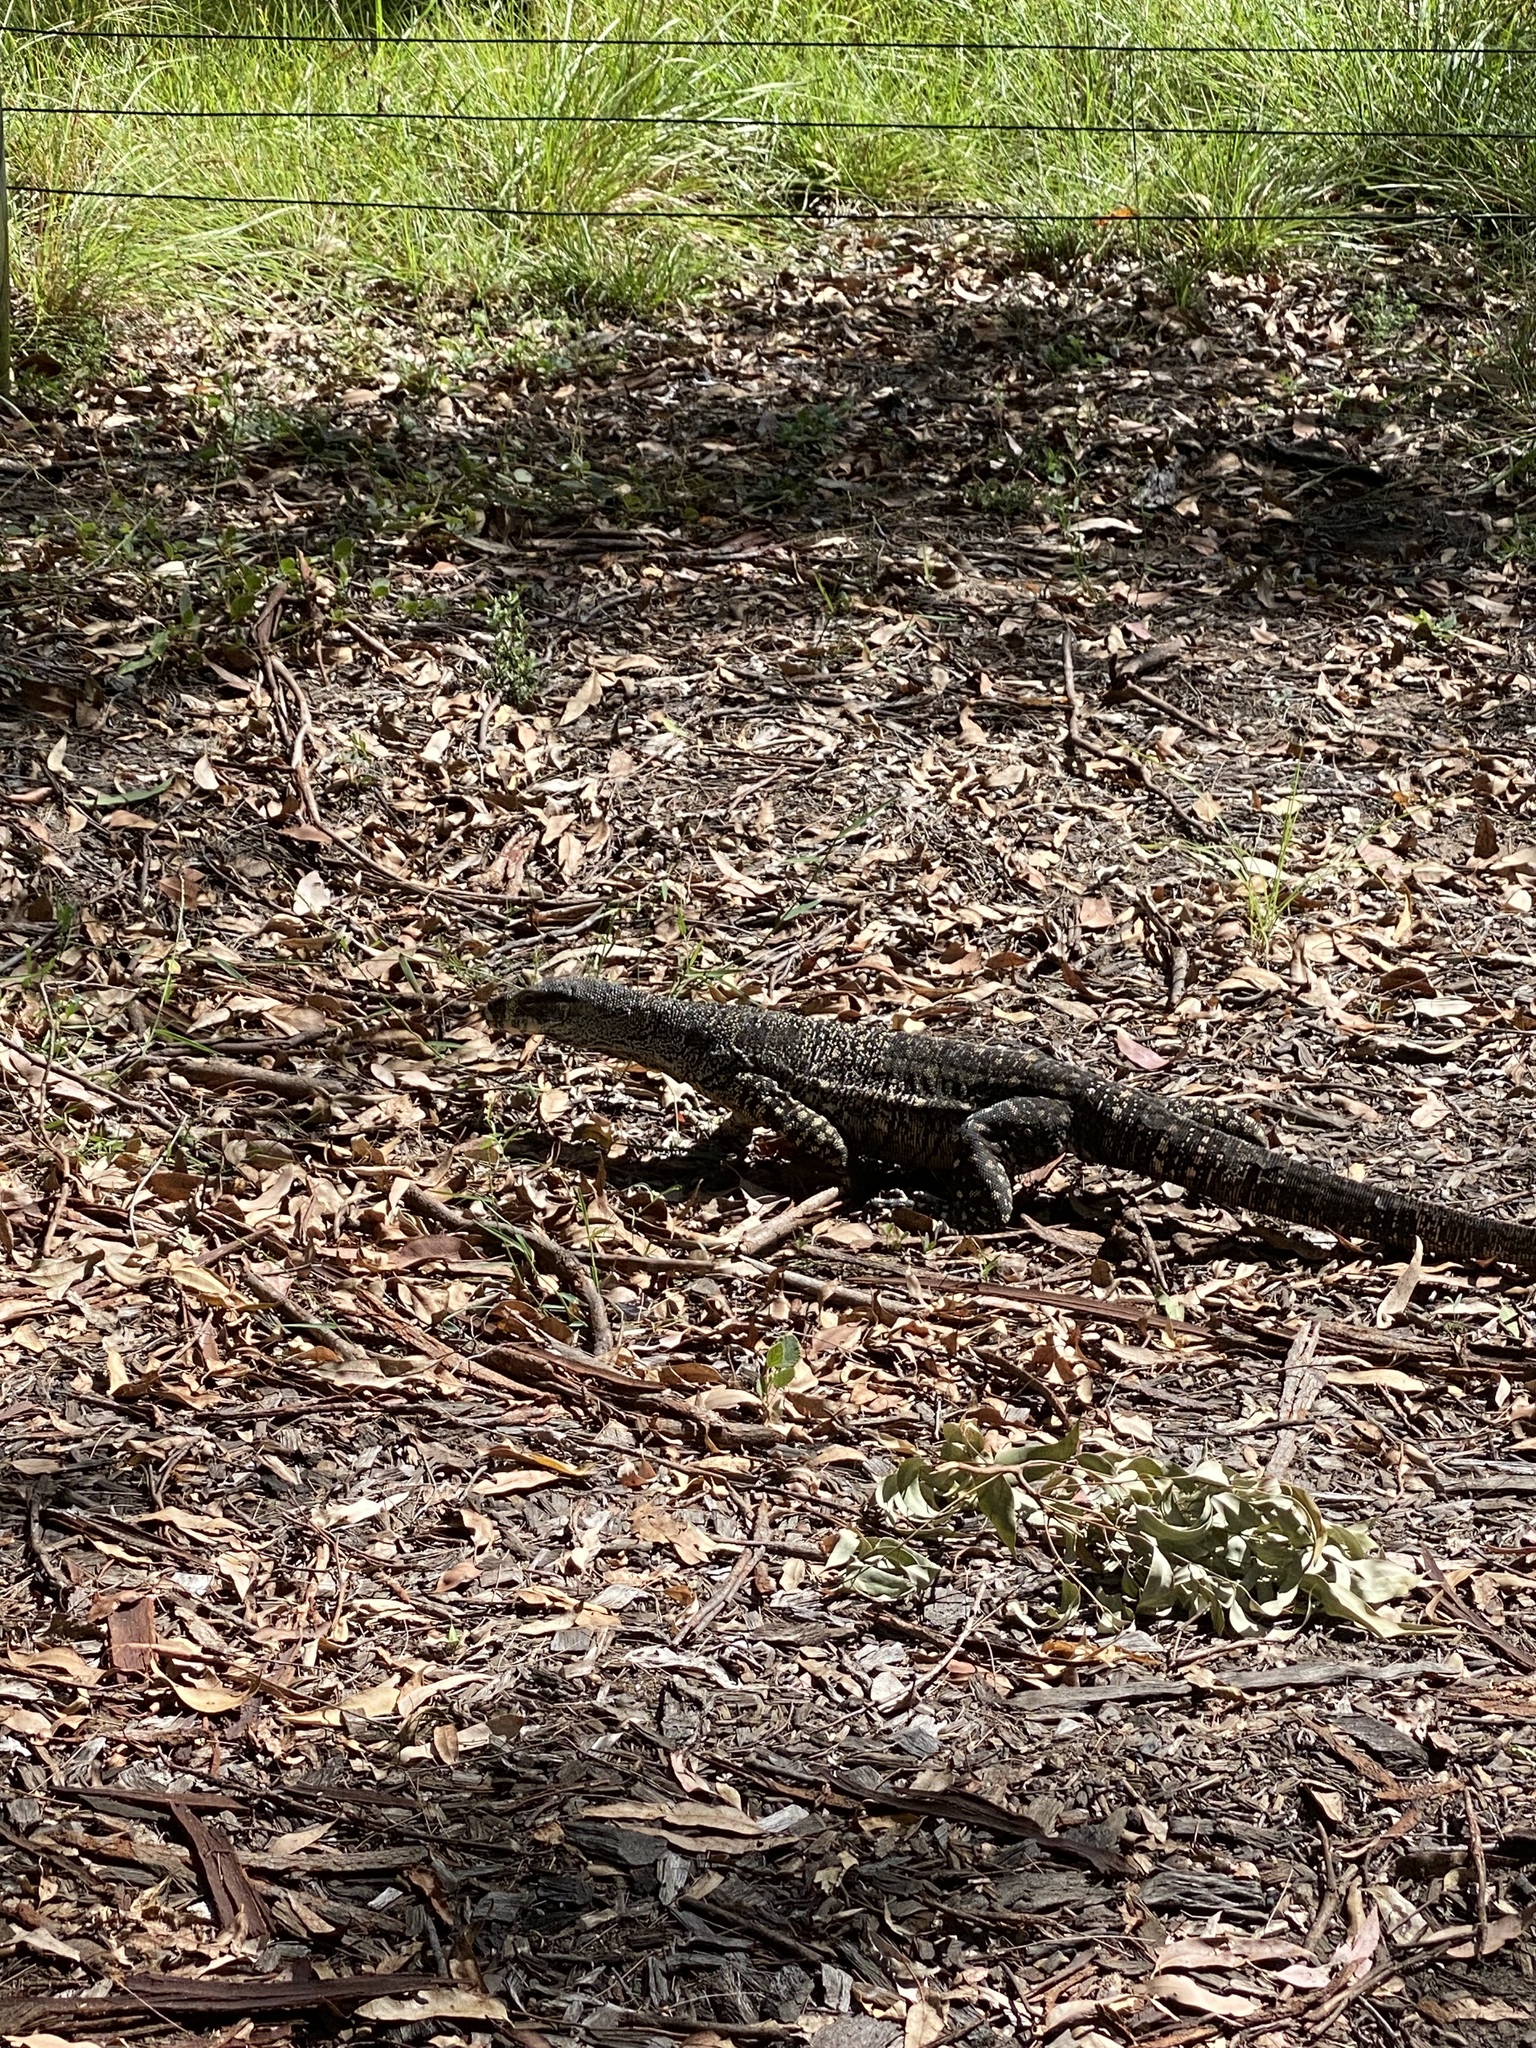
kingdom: Animalia
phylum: Chordata
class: Squamata
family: Varanidae
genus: Varanus
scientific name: Varanus varius
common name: Lace monitor
